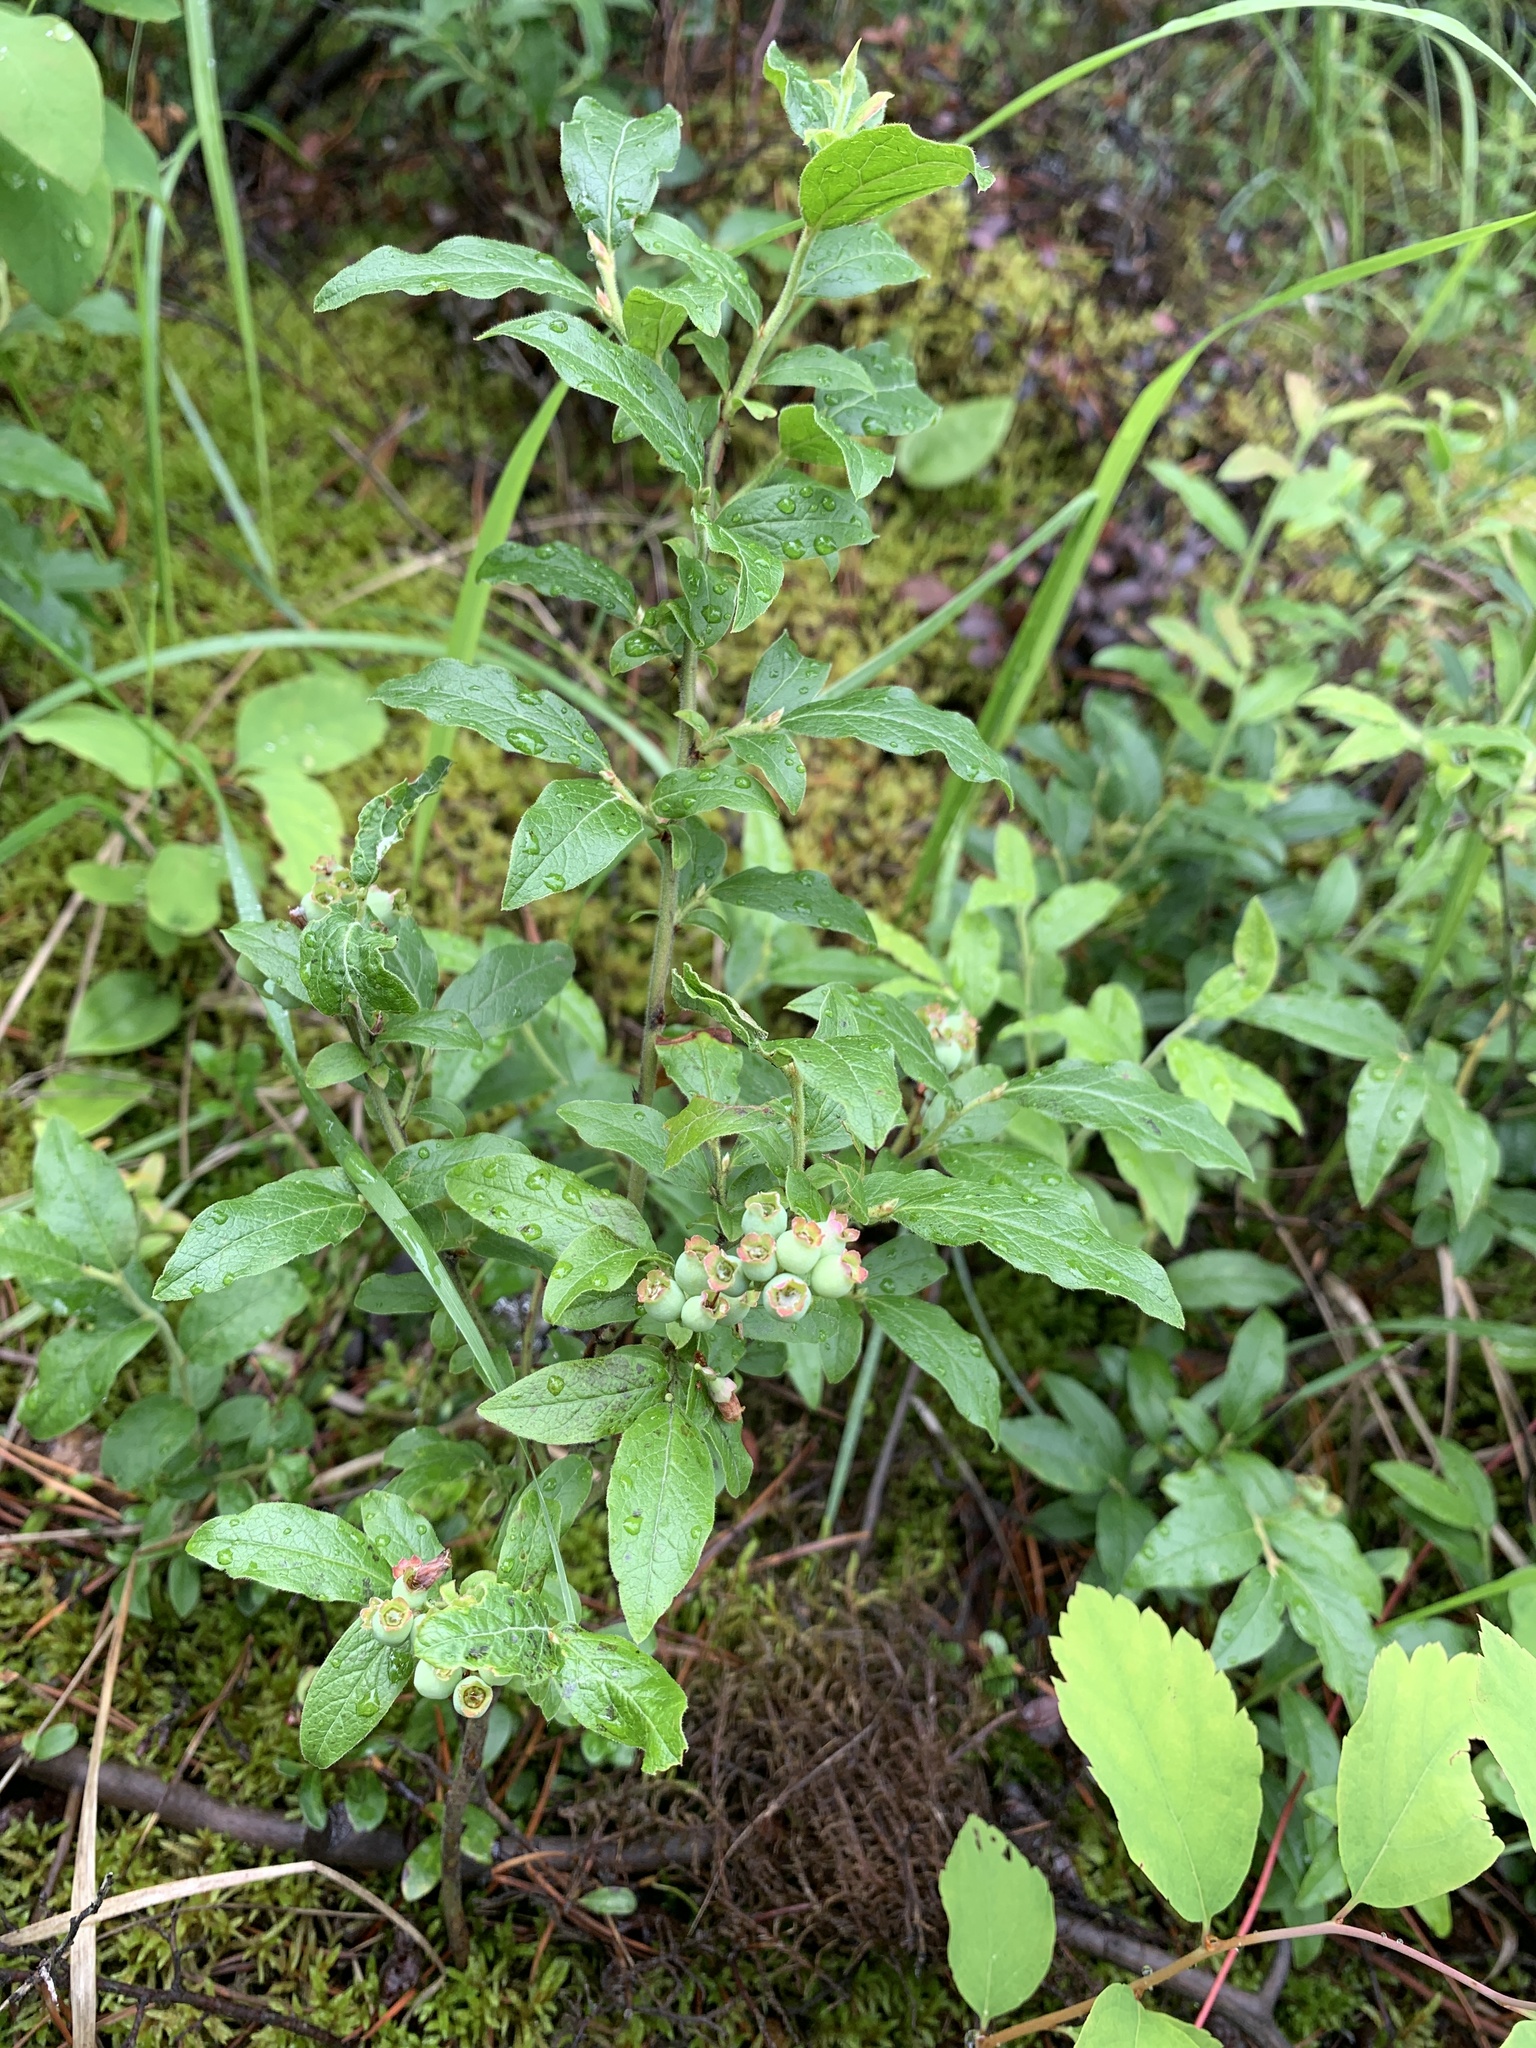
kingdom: Plantae
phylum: Tracheophyta
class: Magnoliopsida
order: Ericales
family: Ericaceae
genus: Vaccinium
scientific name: Vaccinium myrtilloides
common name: Canada blueberry
